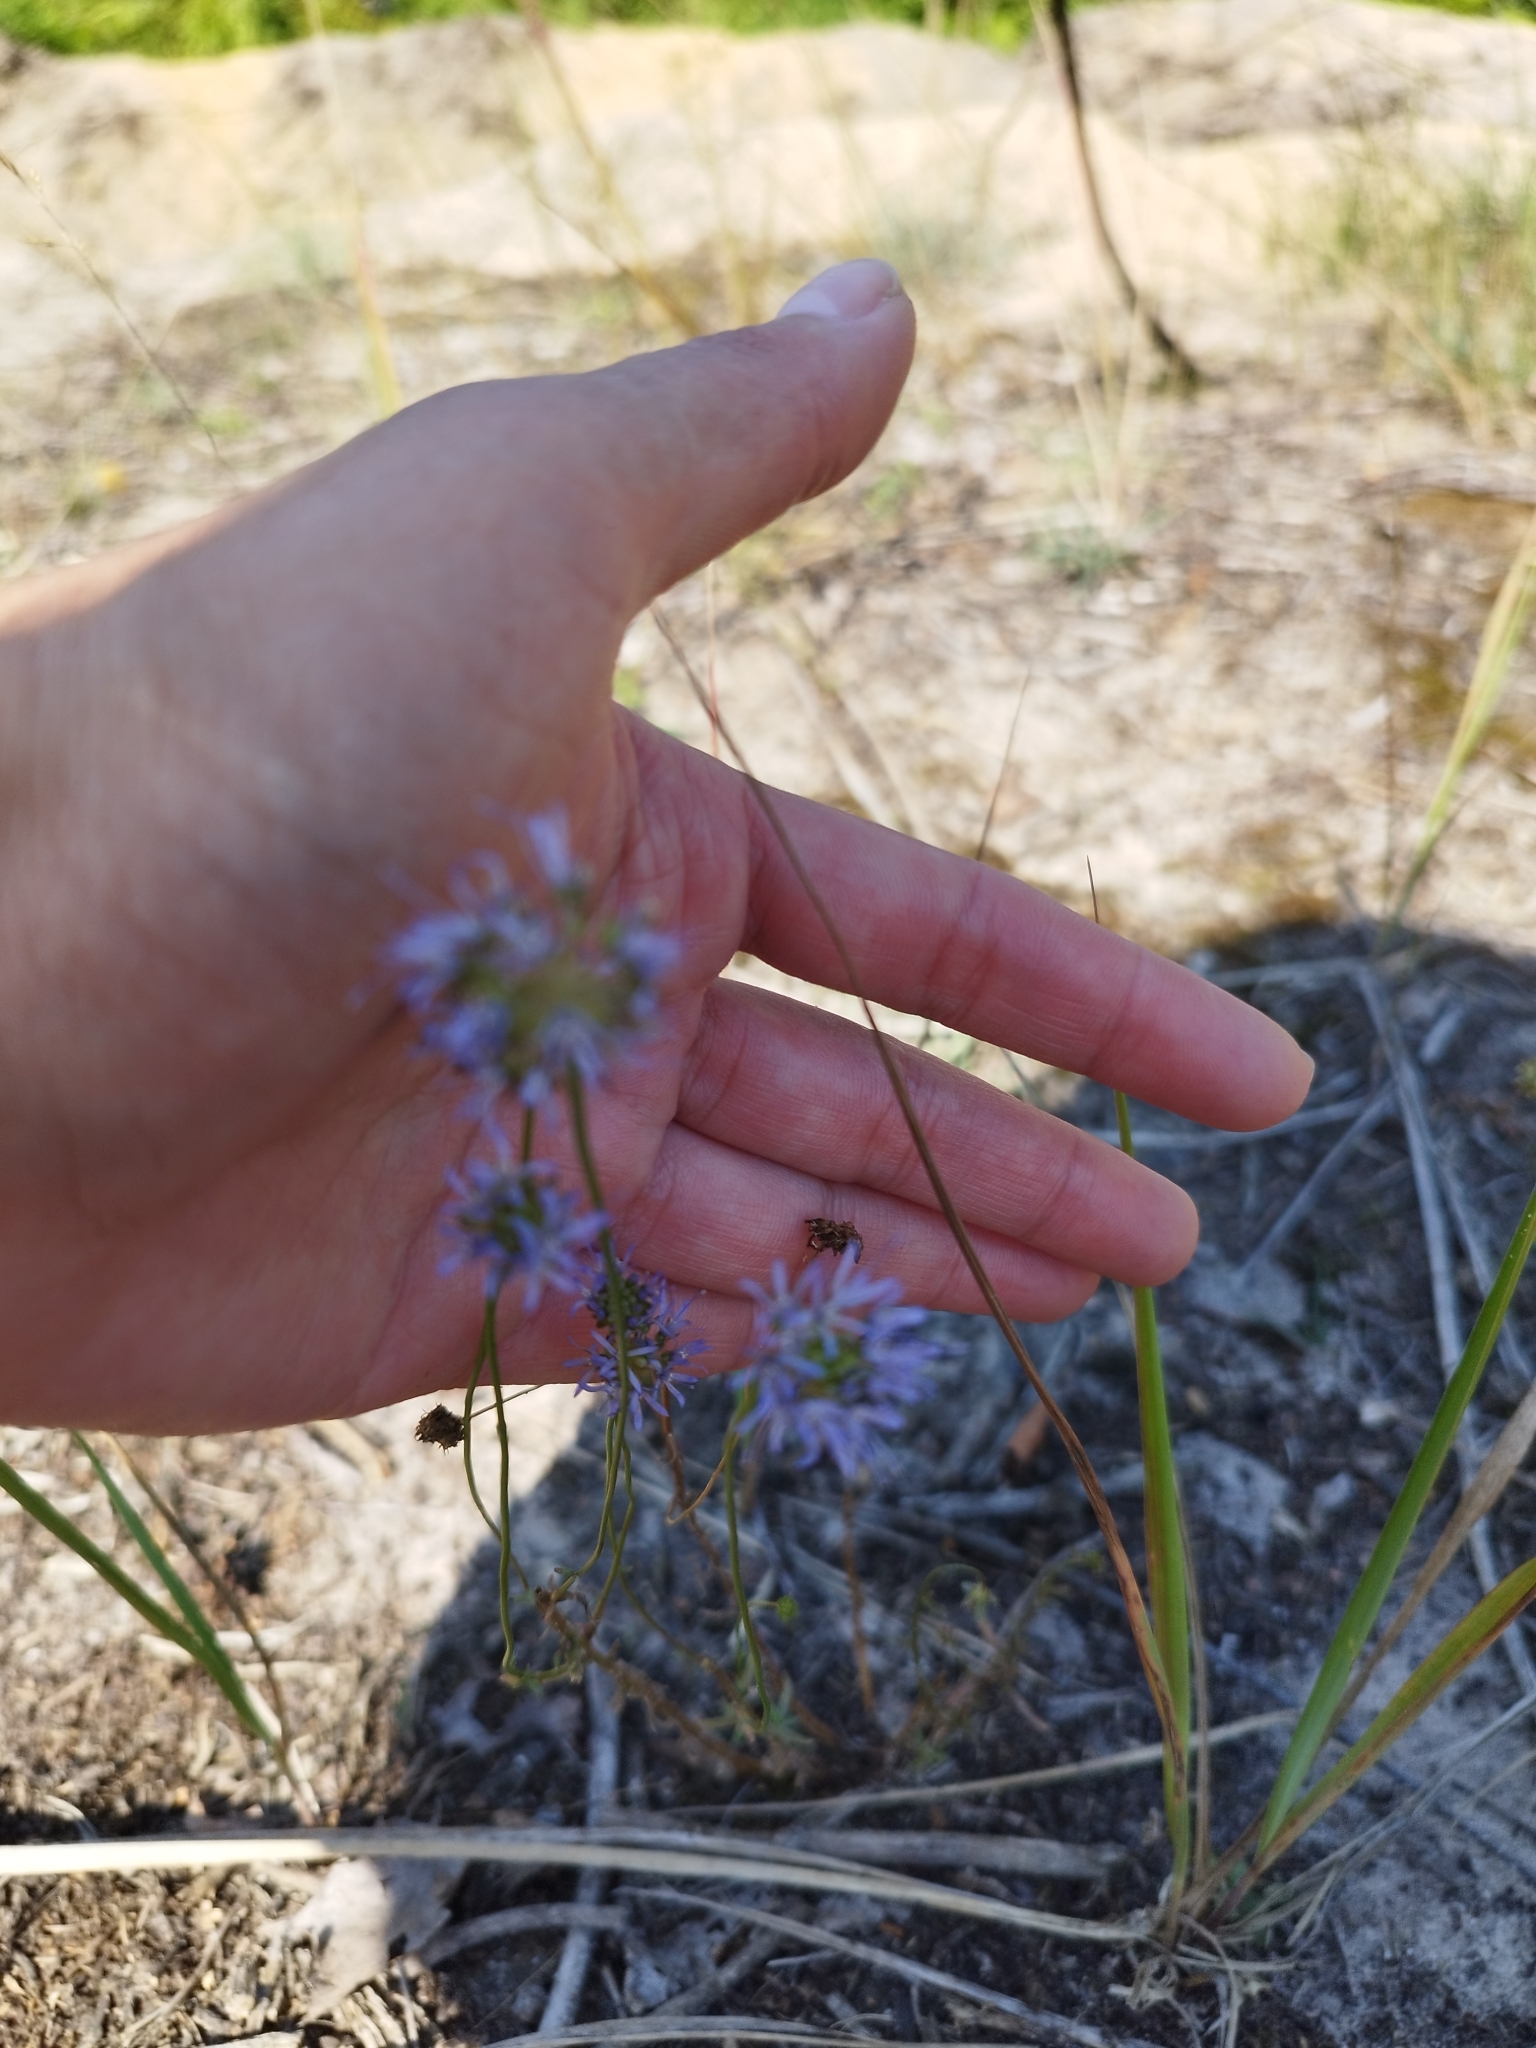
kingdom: Plantae
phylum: Tracheophyta
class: Magnoliopsida
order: Asterales
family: Campanulaceae
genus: Jasione
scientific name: Jasione montana
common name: Sheep's-bit
